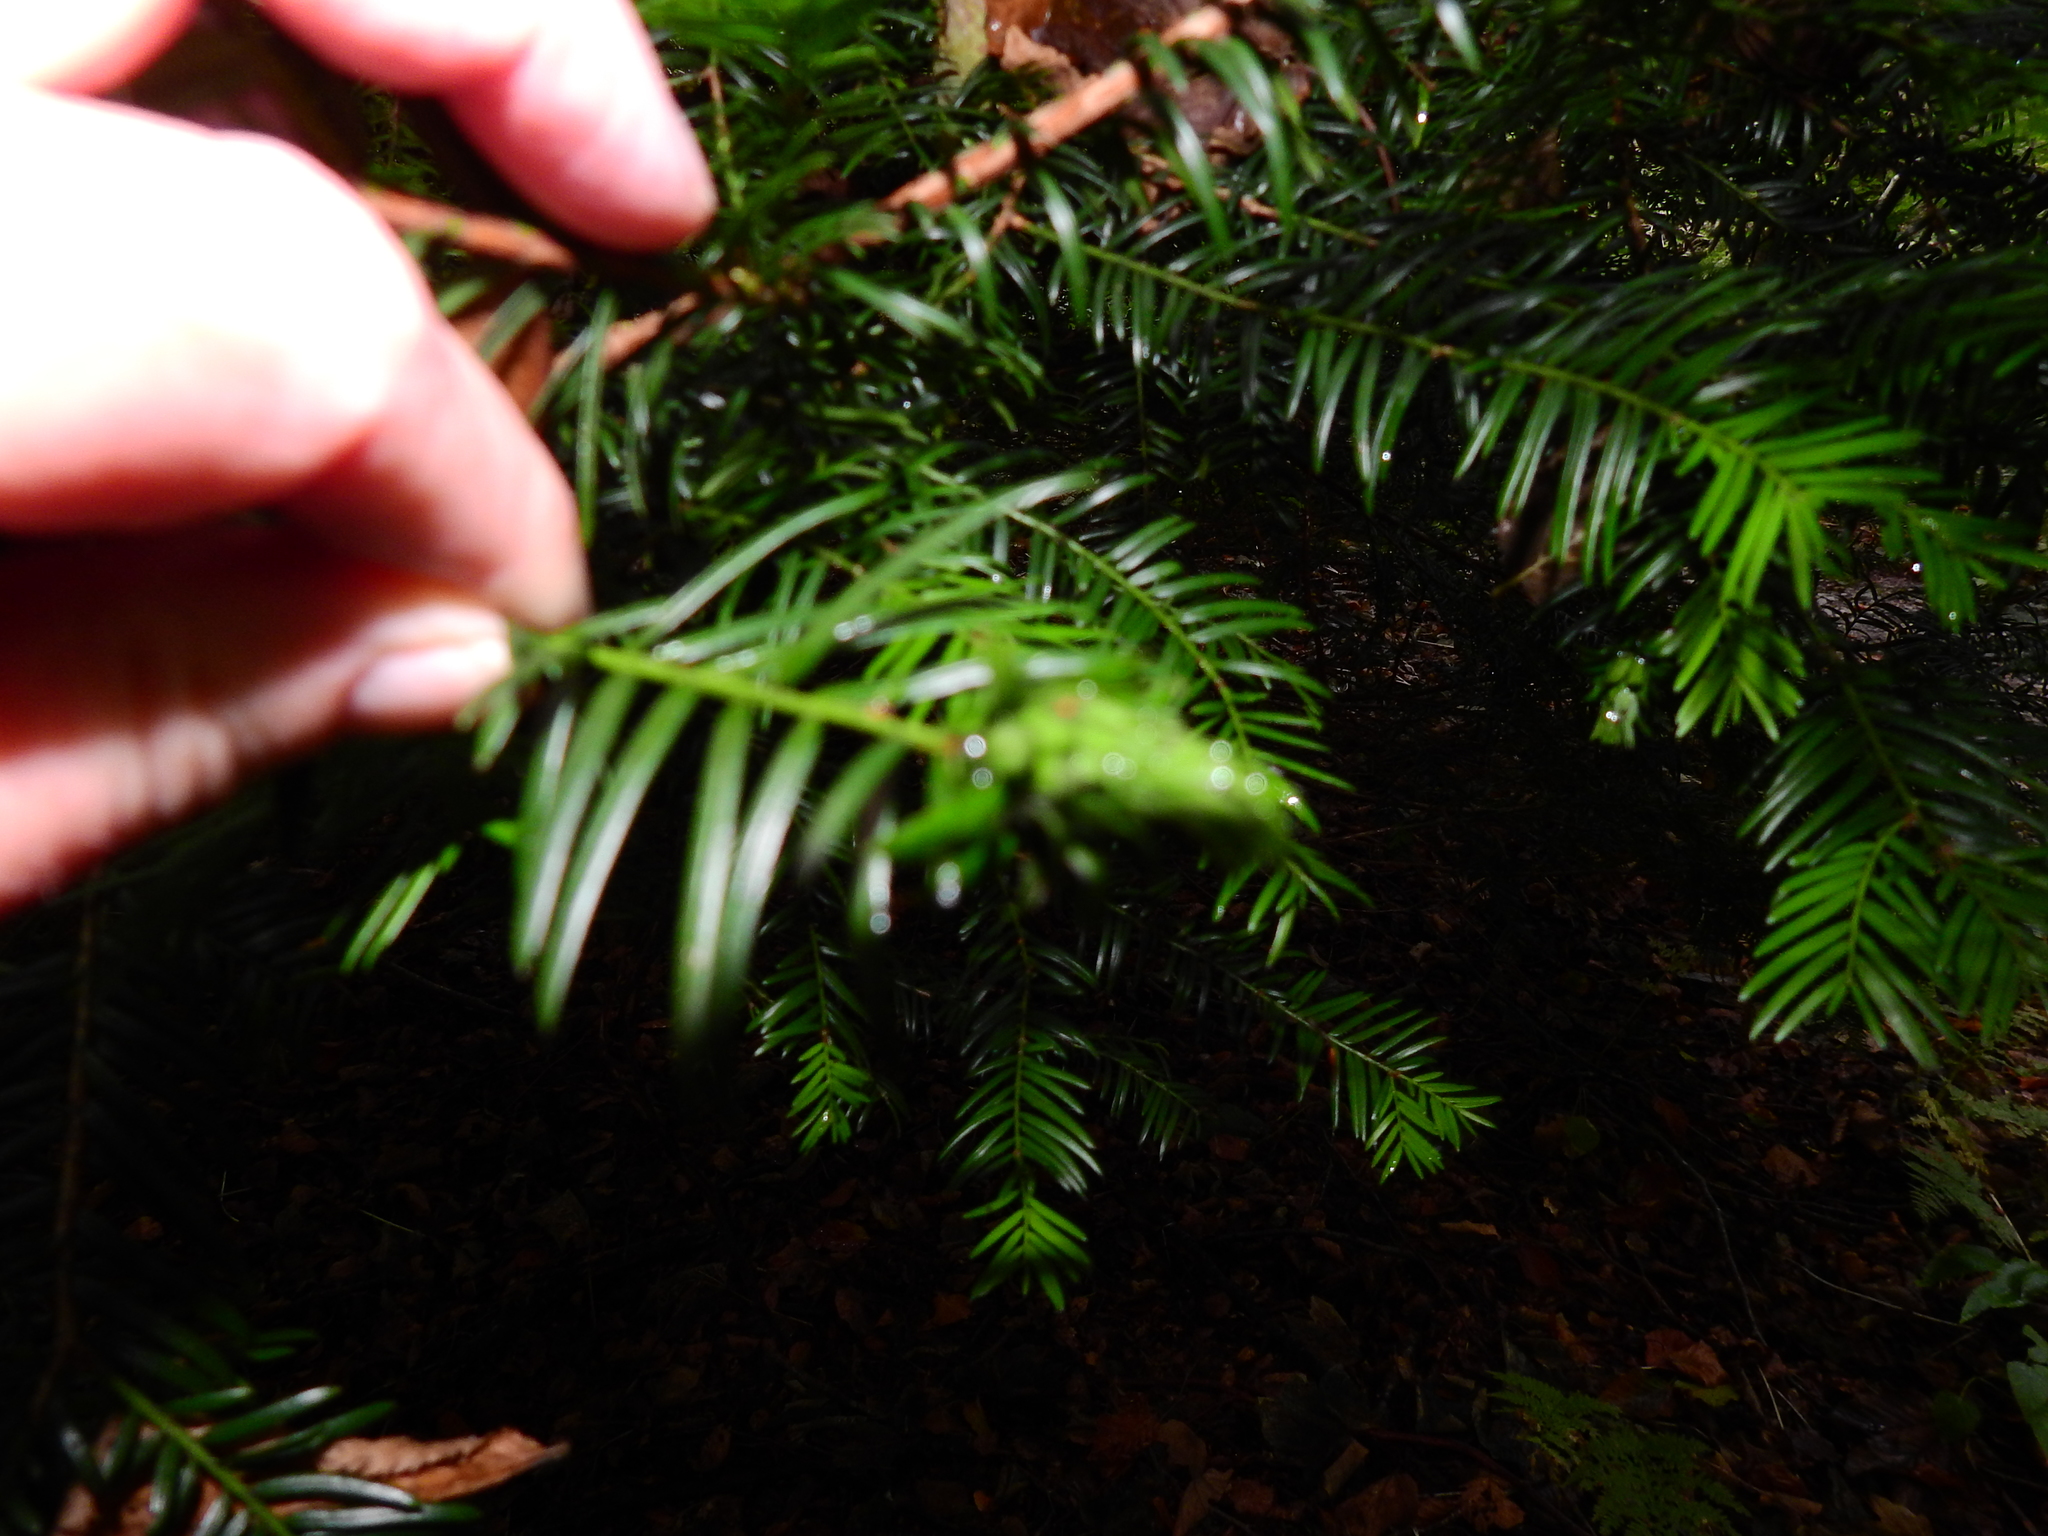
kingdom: Animalia
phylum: Arthropoda
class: Insecta
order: Diptera
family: Cecidomyiidae
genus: Taxomyia
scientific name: Taxomyia taxi
